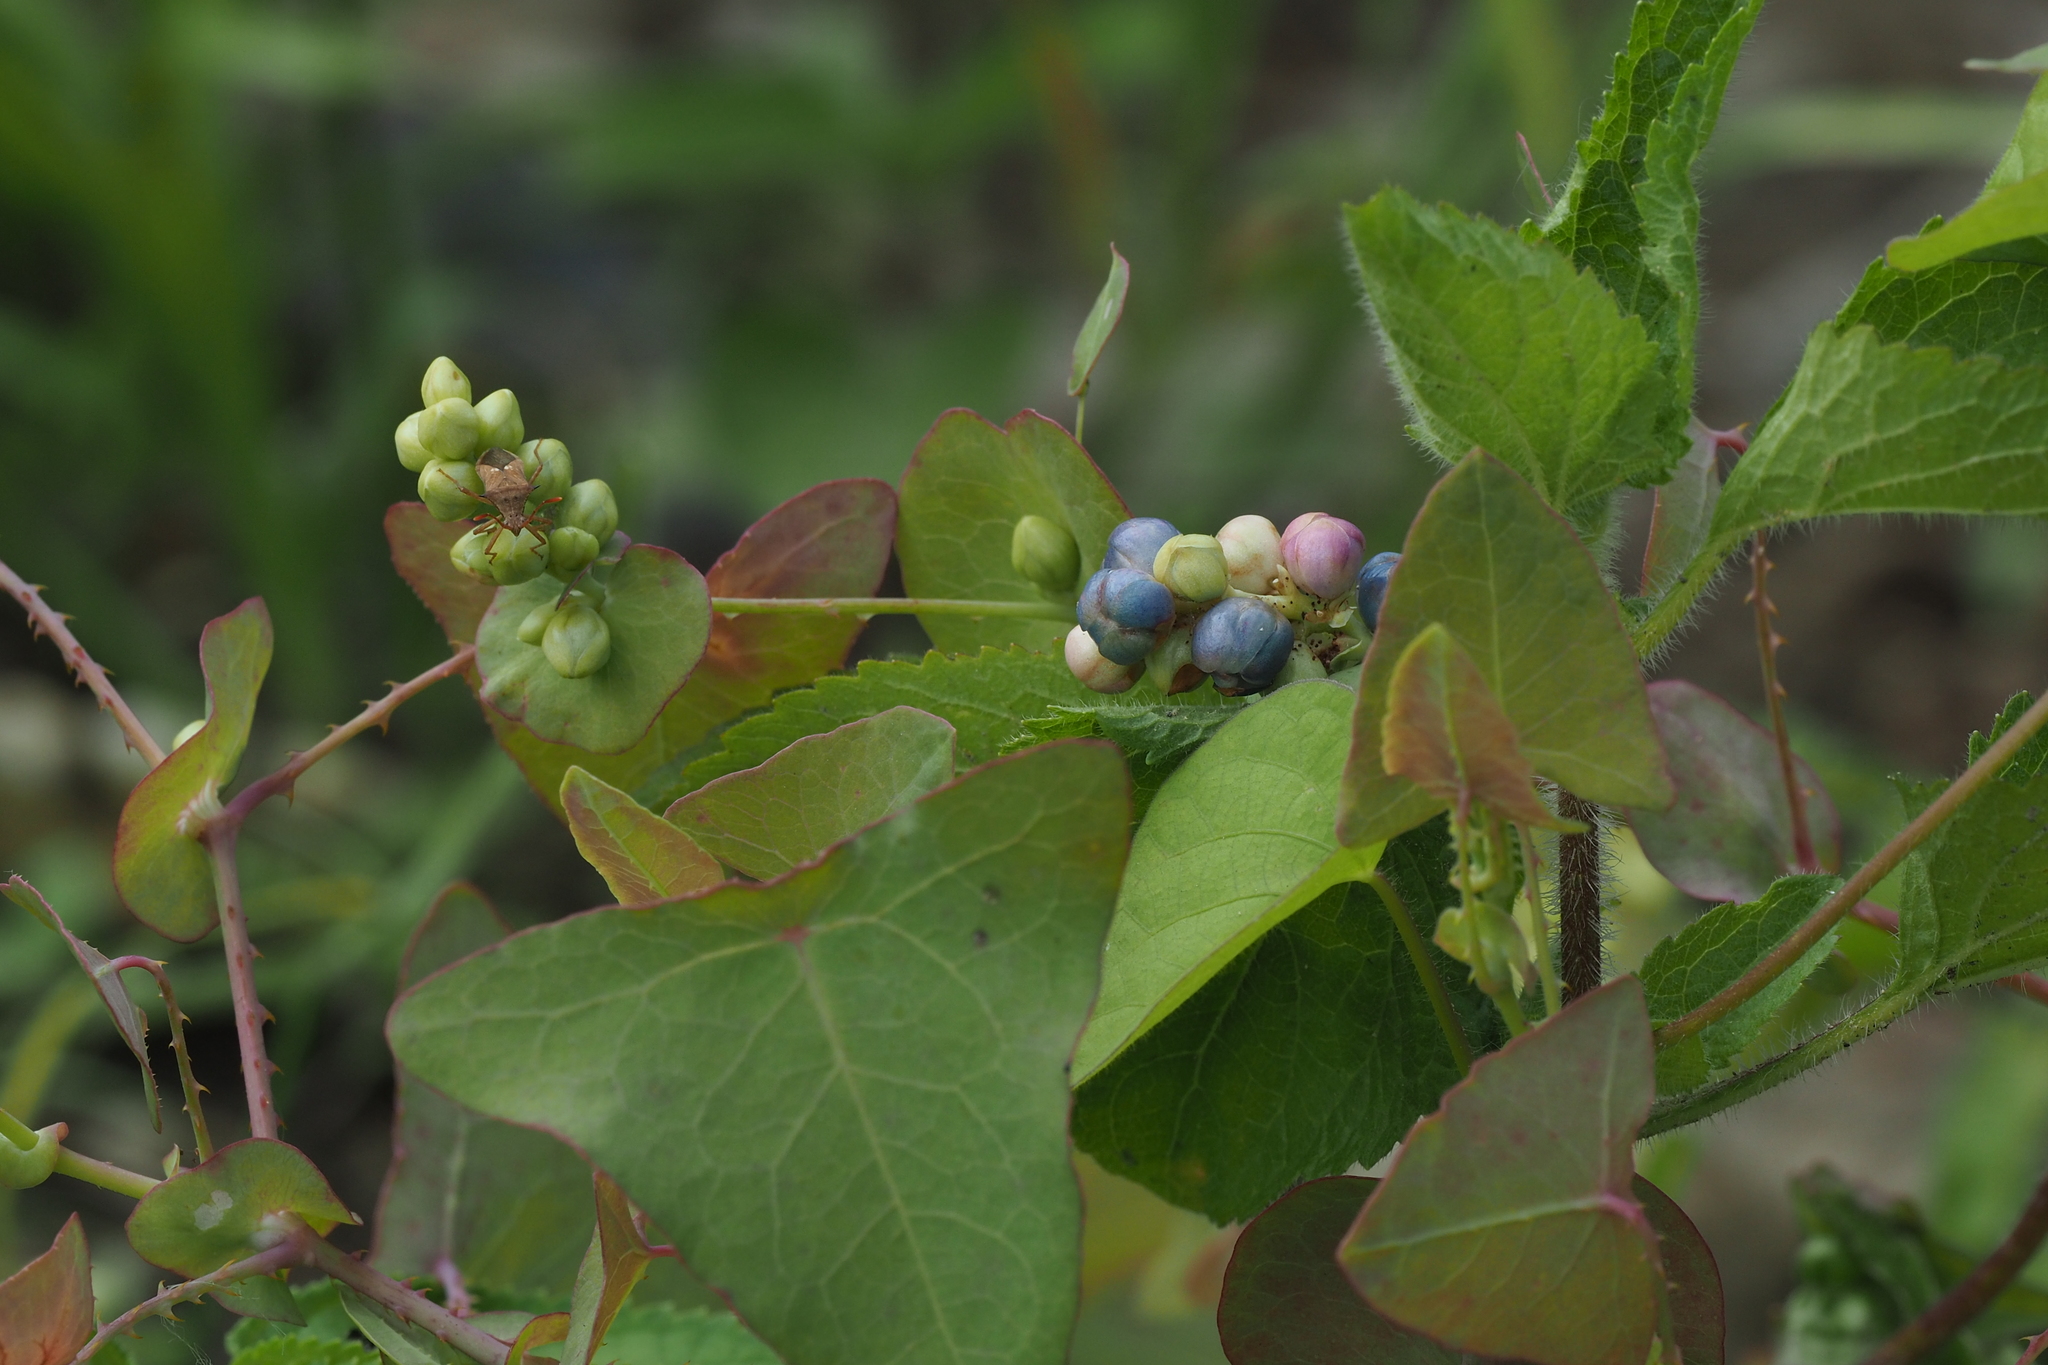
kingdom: Plantae
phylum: Tracheophyta
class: Magnoliopsida
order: Caryophyllales
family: Polygonaceae
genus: Persicaria
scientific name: Persicaria perfoliata
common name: Asiatic tearthumb
